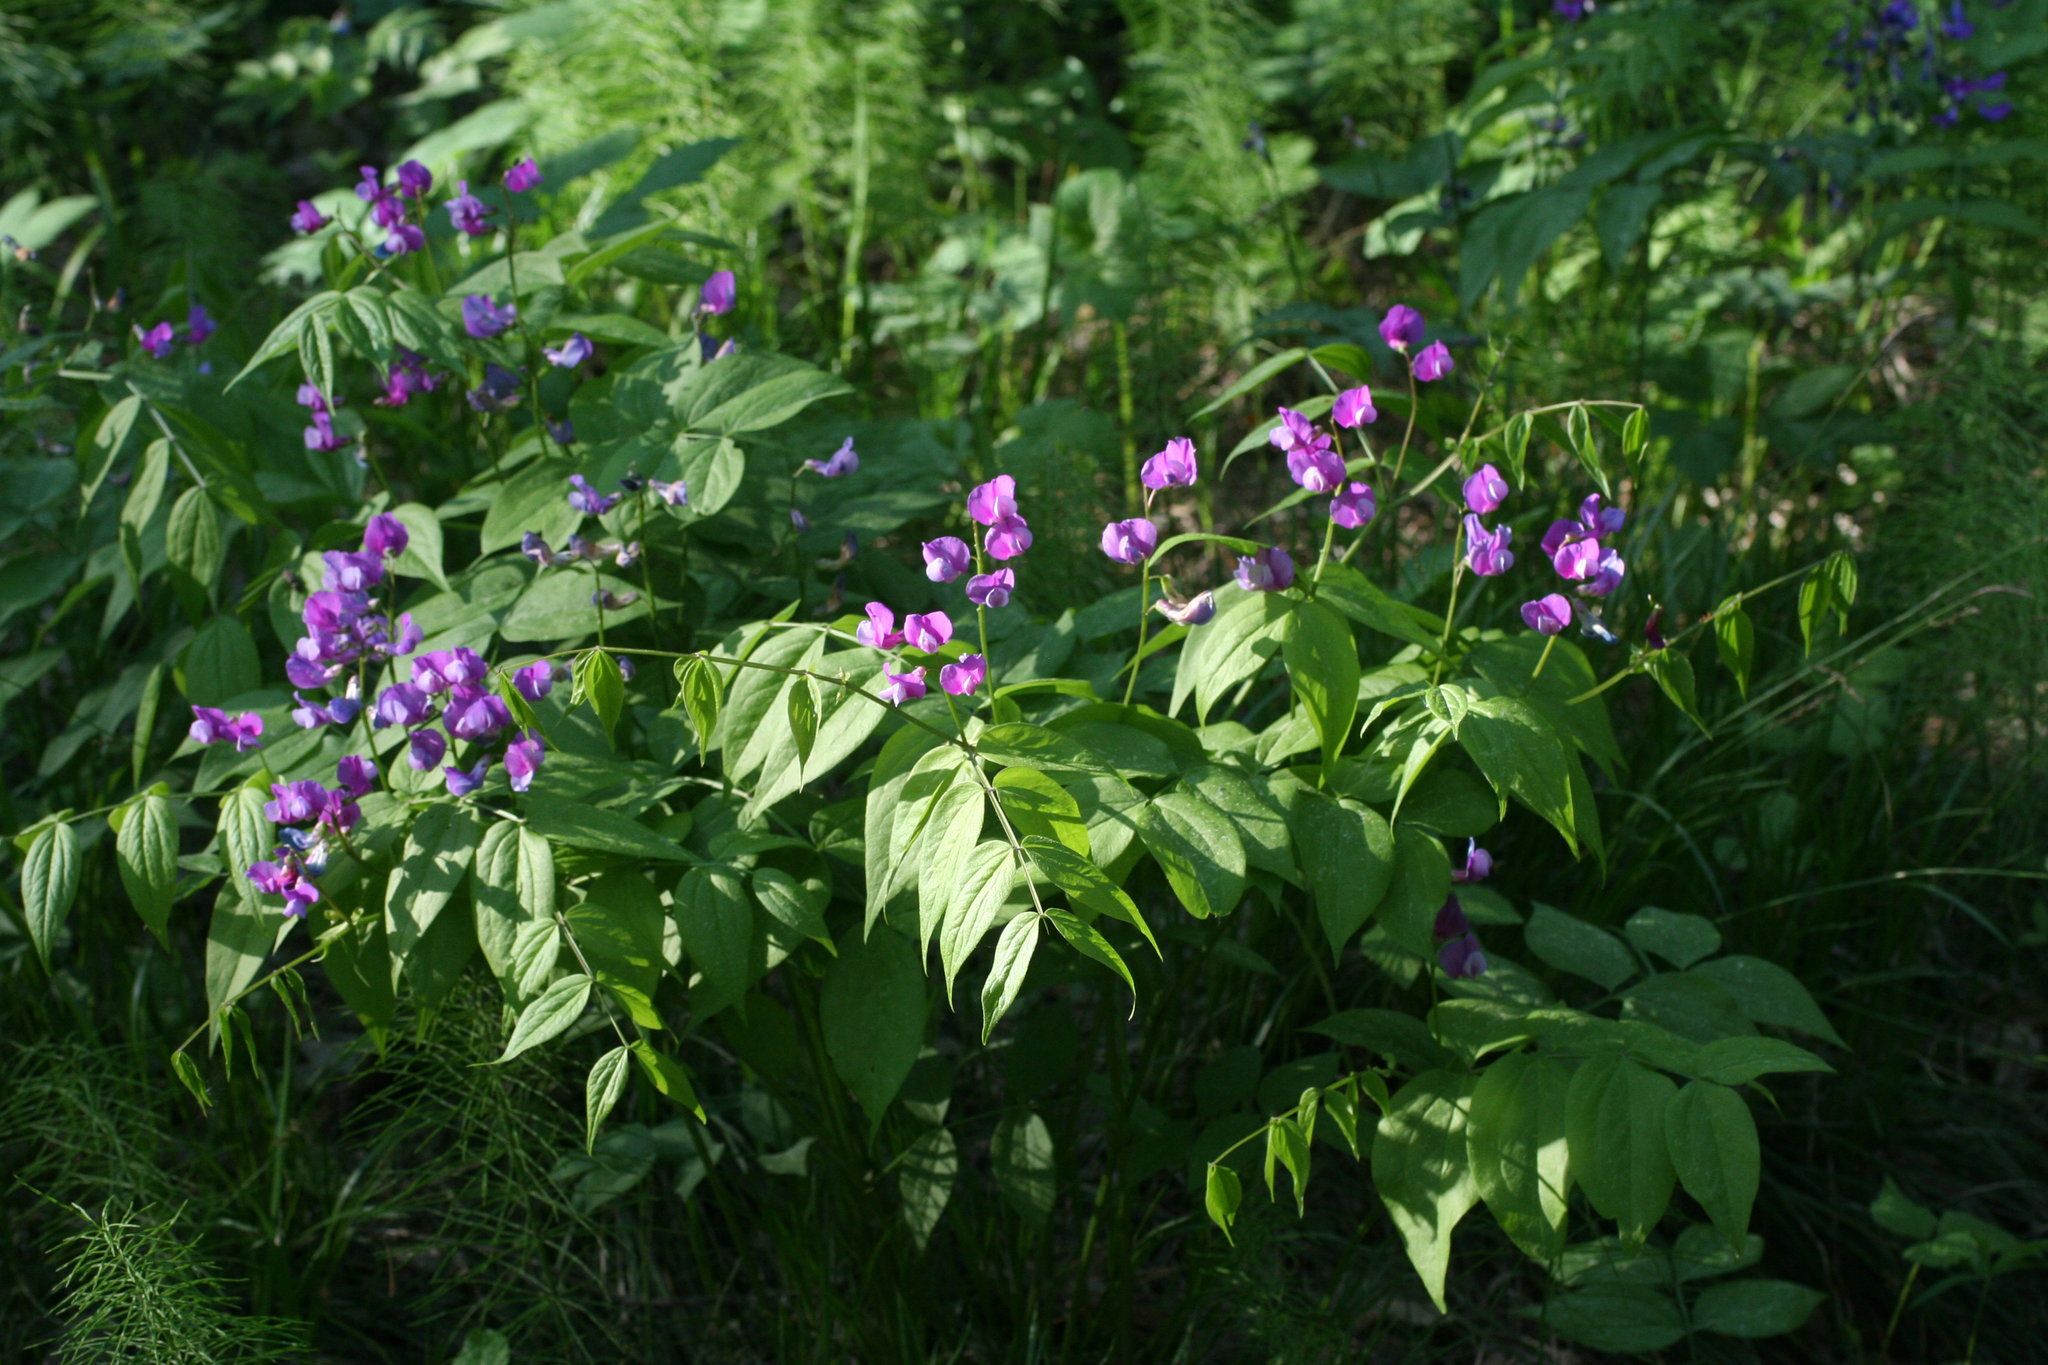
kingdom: Plantae
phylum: Tracheophyta
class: Magnoliopsida
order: Fabales
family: Fabaceae
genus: Lathyrus
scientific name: Lathyrus vernus
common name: Spring pea
